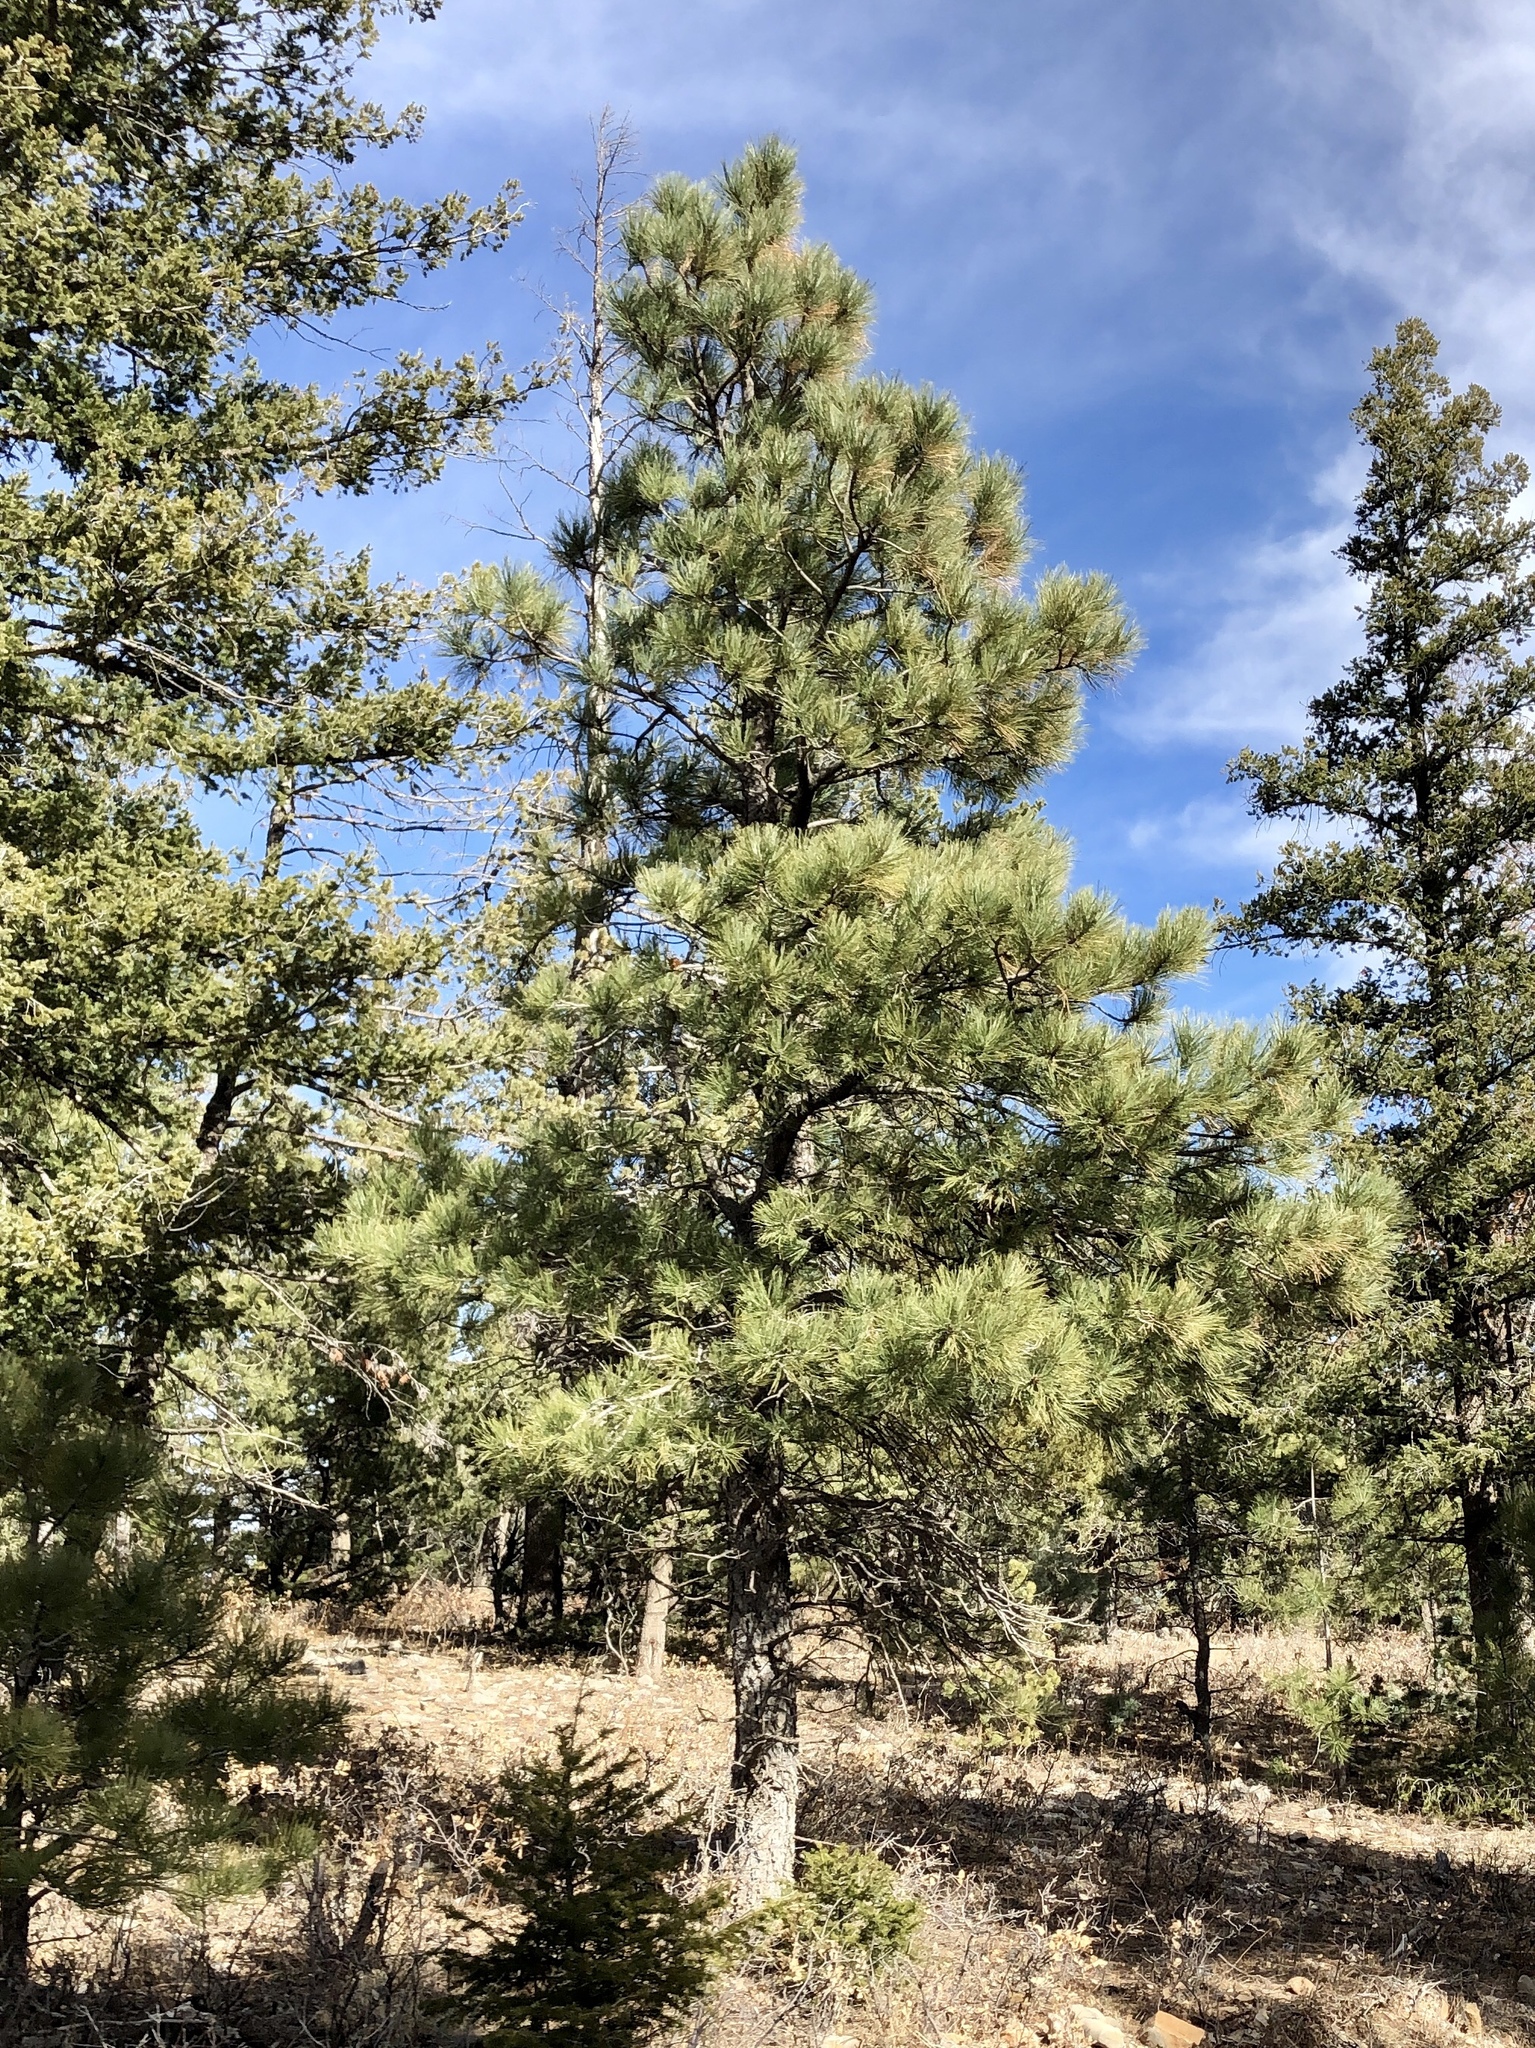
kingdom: Plantae
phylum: Tracheophyta
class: Pinopsida
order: Pinales
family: Pinaceae
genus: Pinus
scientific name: Pinus ponderosa
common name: Western yellow-pine
